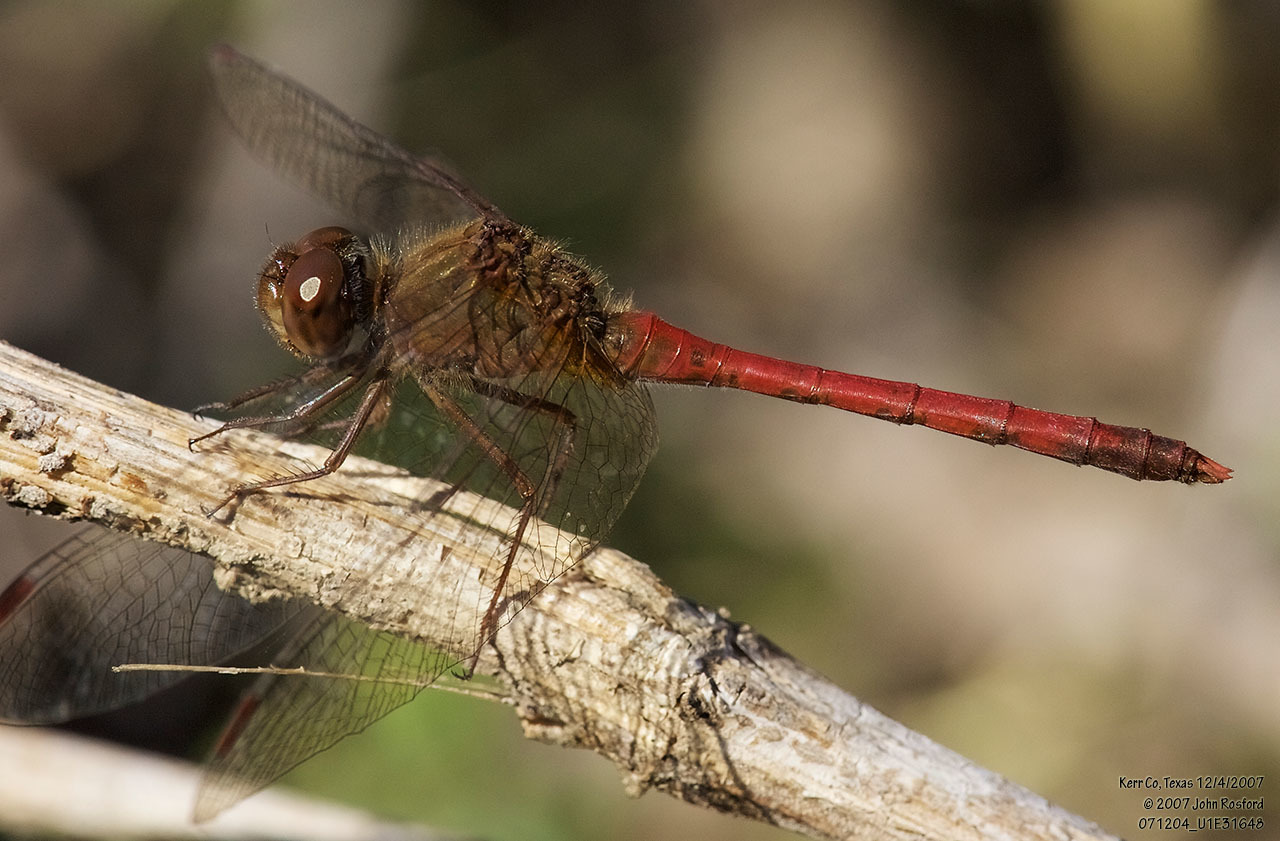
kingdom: Animalia
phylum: Arthropoda
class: Insecta
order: Odonata
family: Libellulidae
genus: Sympetrum
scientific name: Sympetrum vicinum
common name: Autumn meadowhawk
